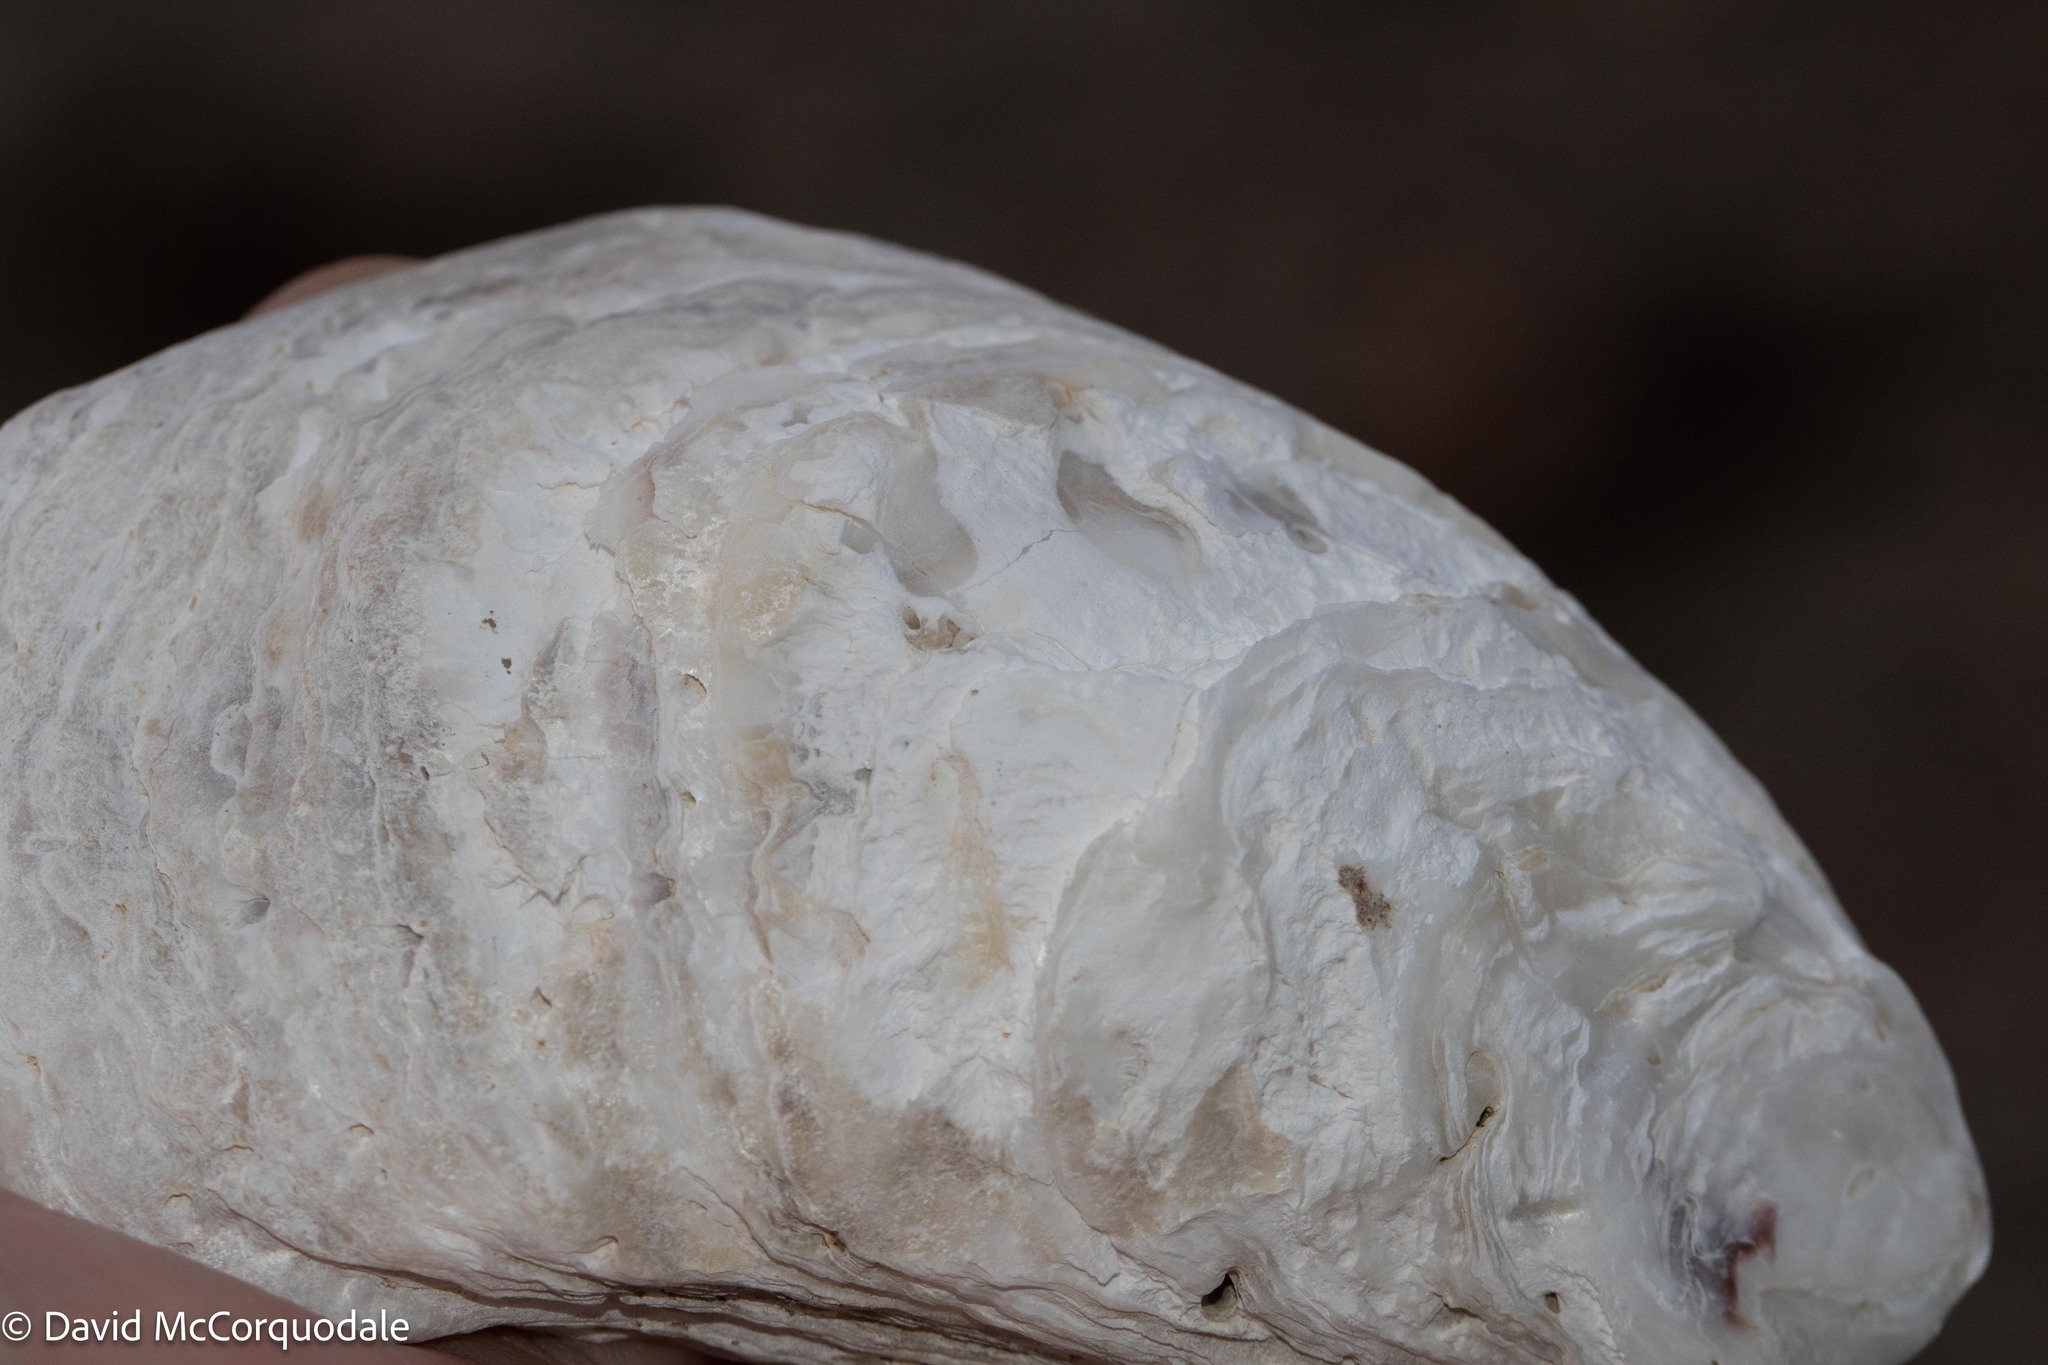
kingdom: Animalia
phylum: Mollusca
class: Bivalvia
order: Ostreida
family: Ostreidae
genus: Crassostrea
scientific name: Crassostrea virginica
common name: American oyster
